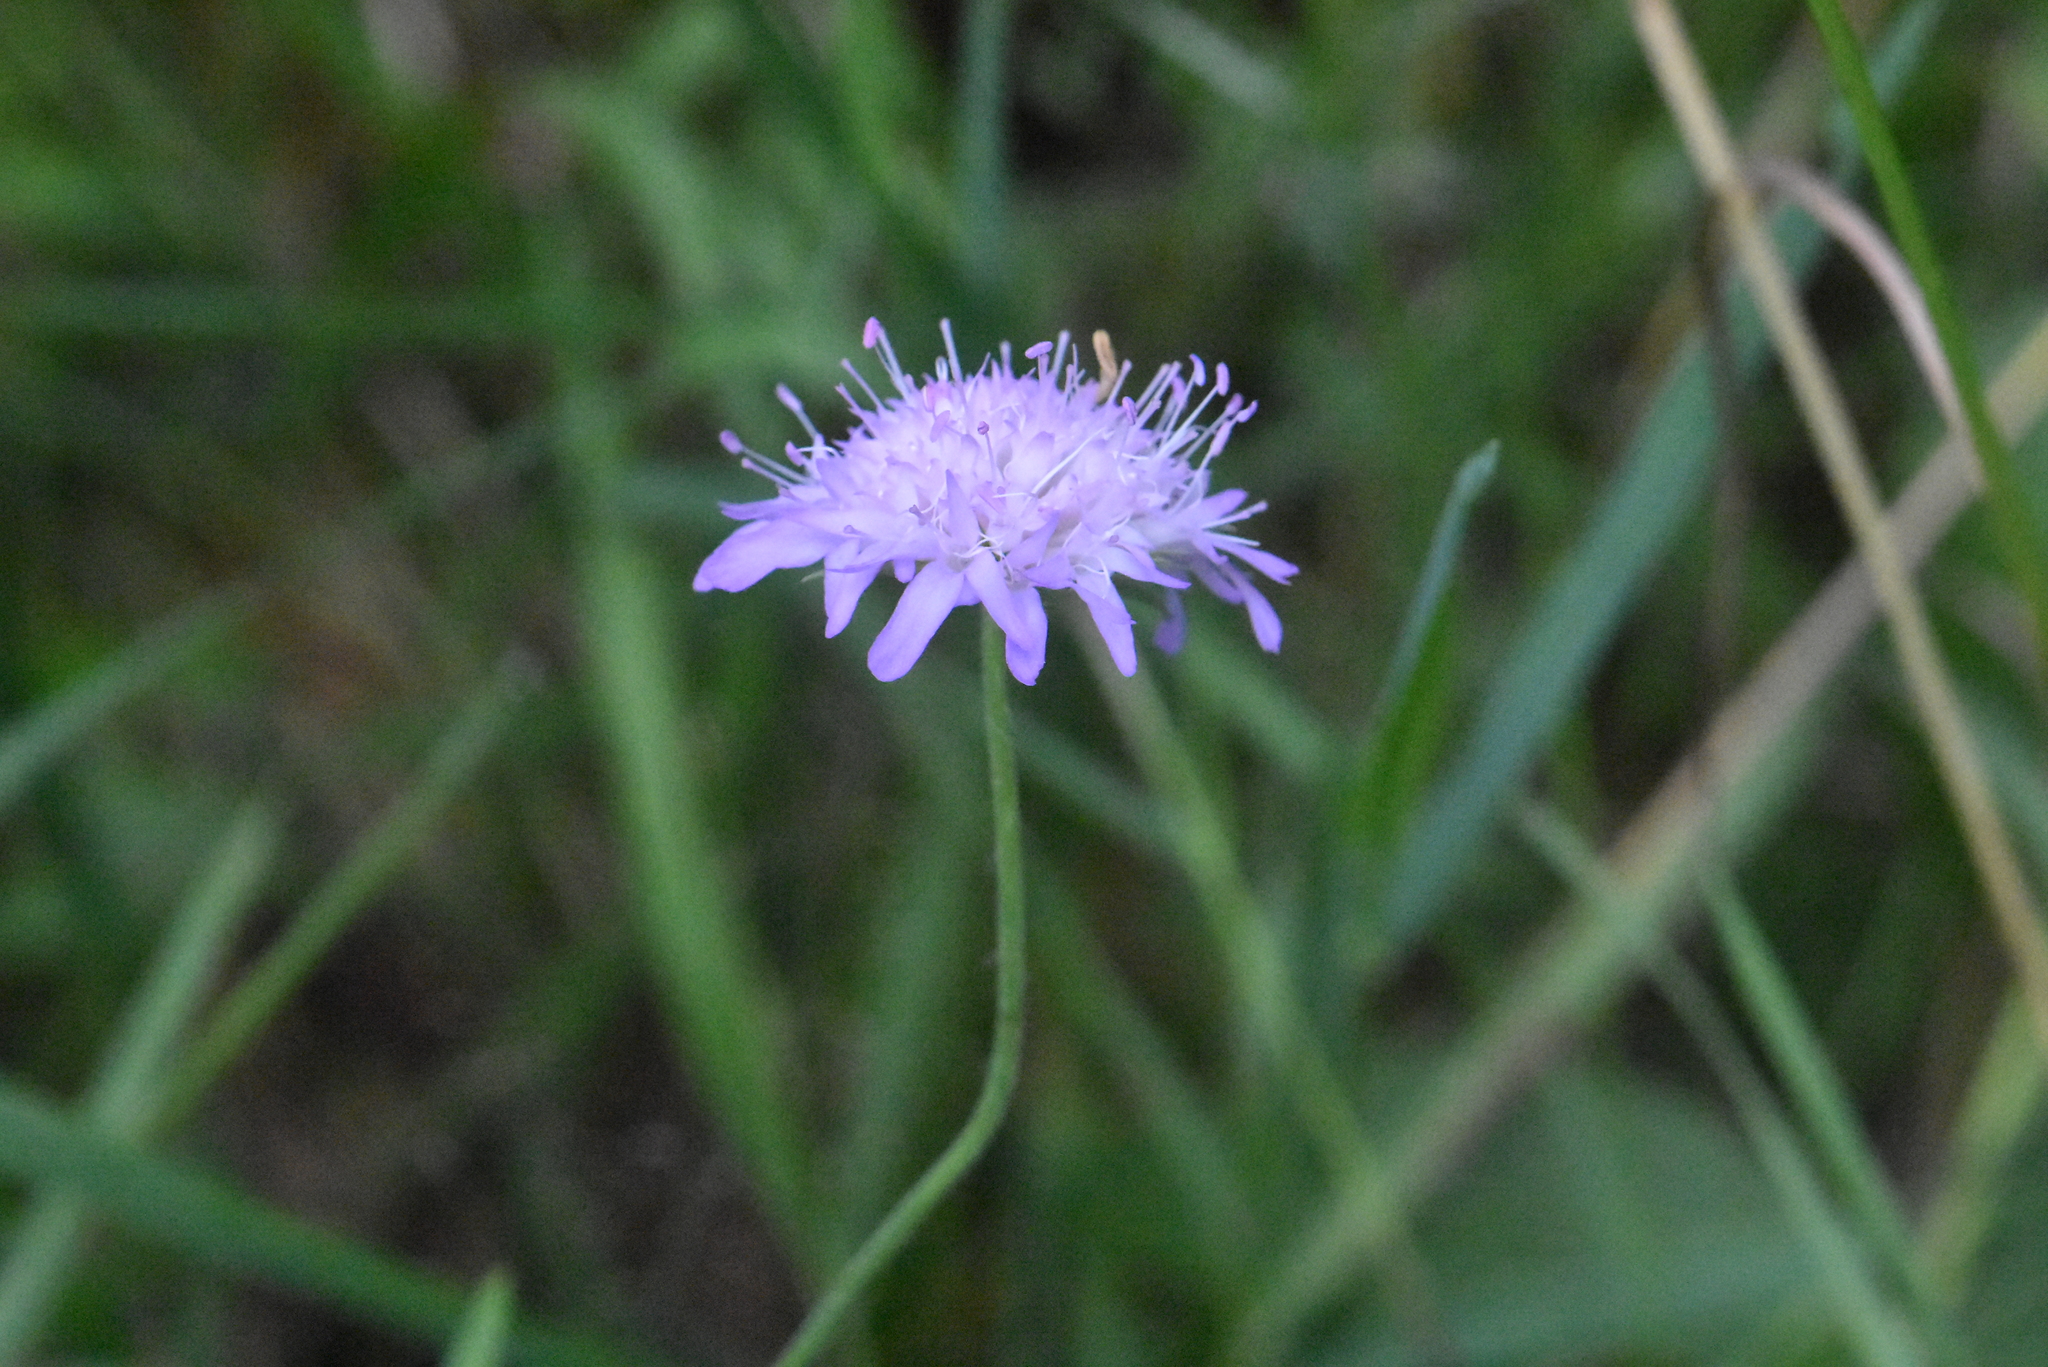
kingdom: Plantae
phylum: Tracheophyta
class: Magnoliopsida
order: Dipsacales
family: Caprifoliaceae
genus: Knautia
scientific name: Knautia arvensis
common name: Field scabiosa
